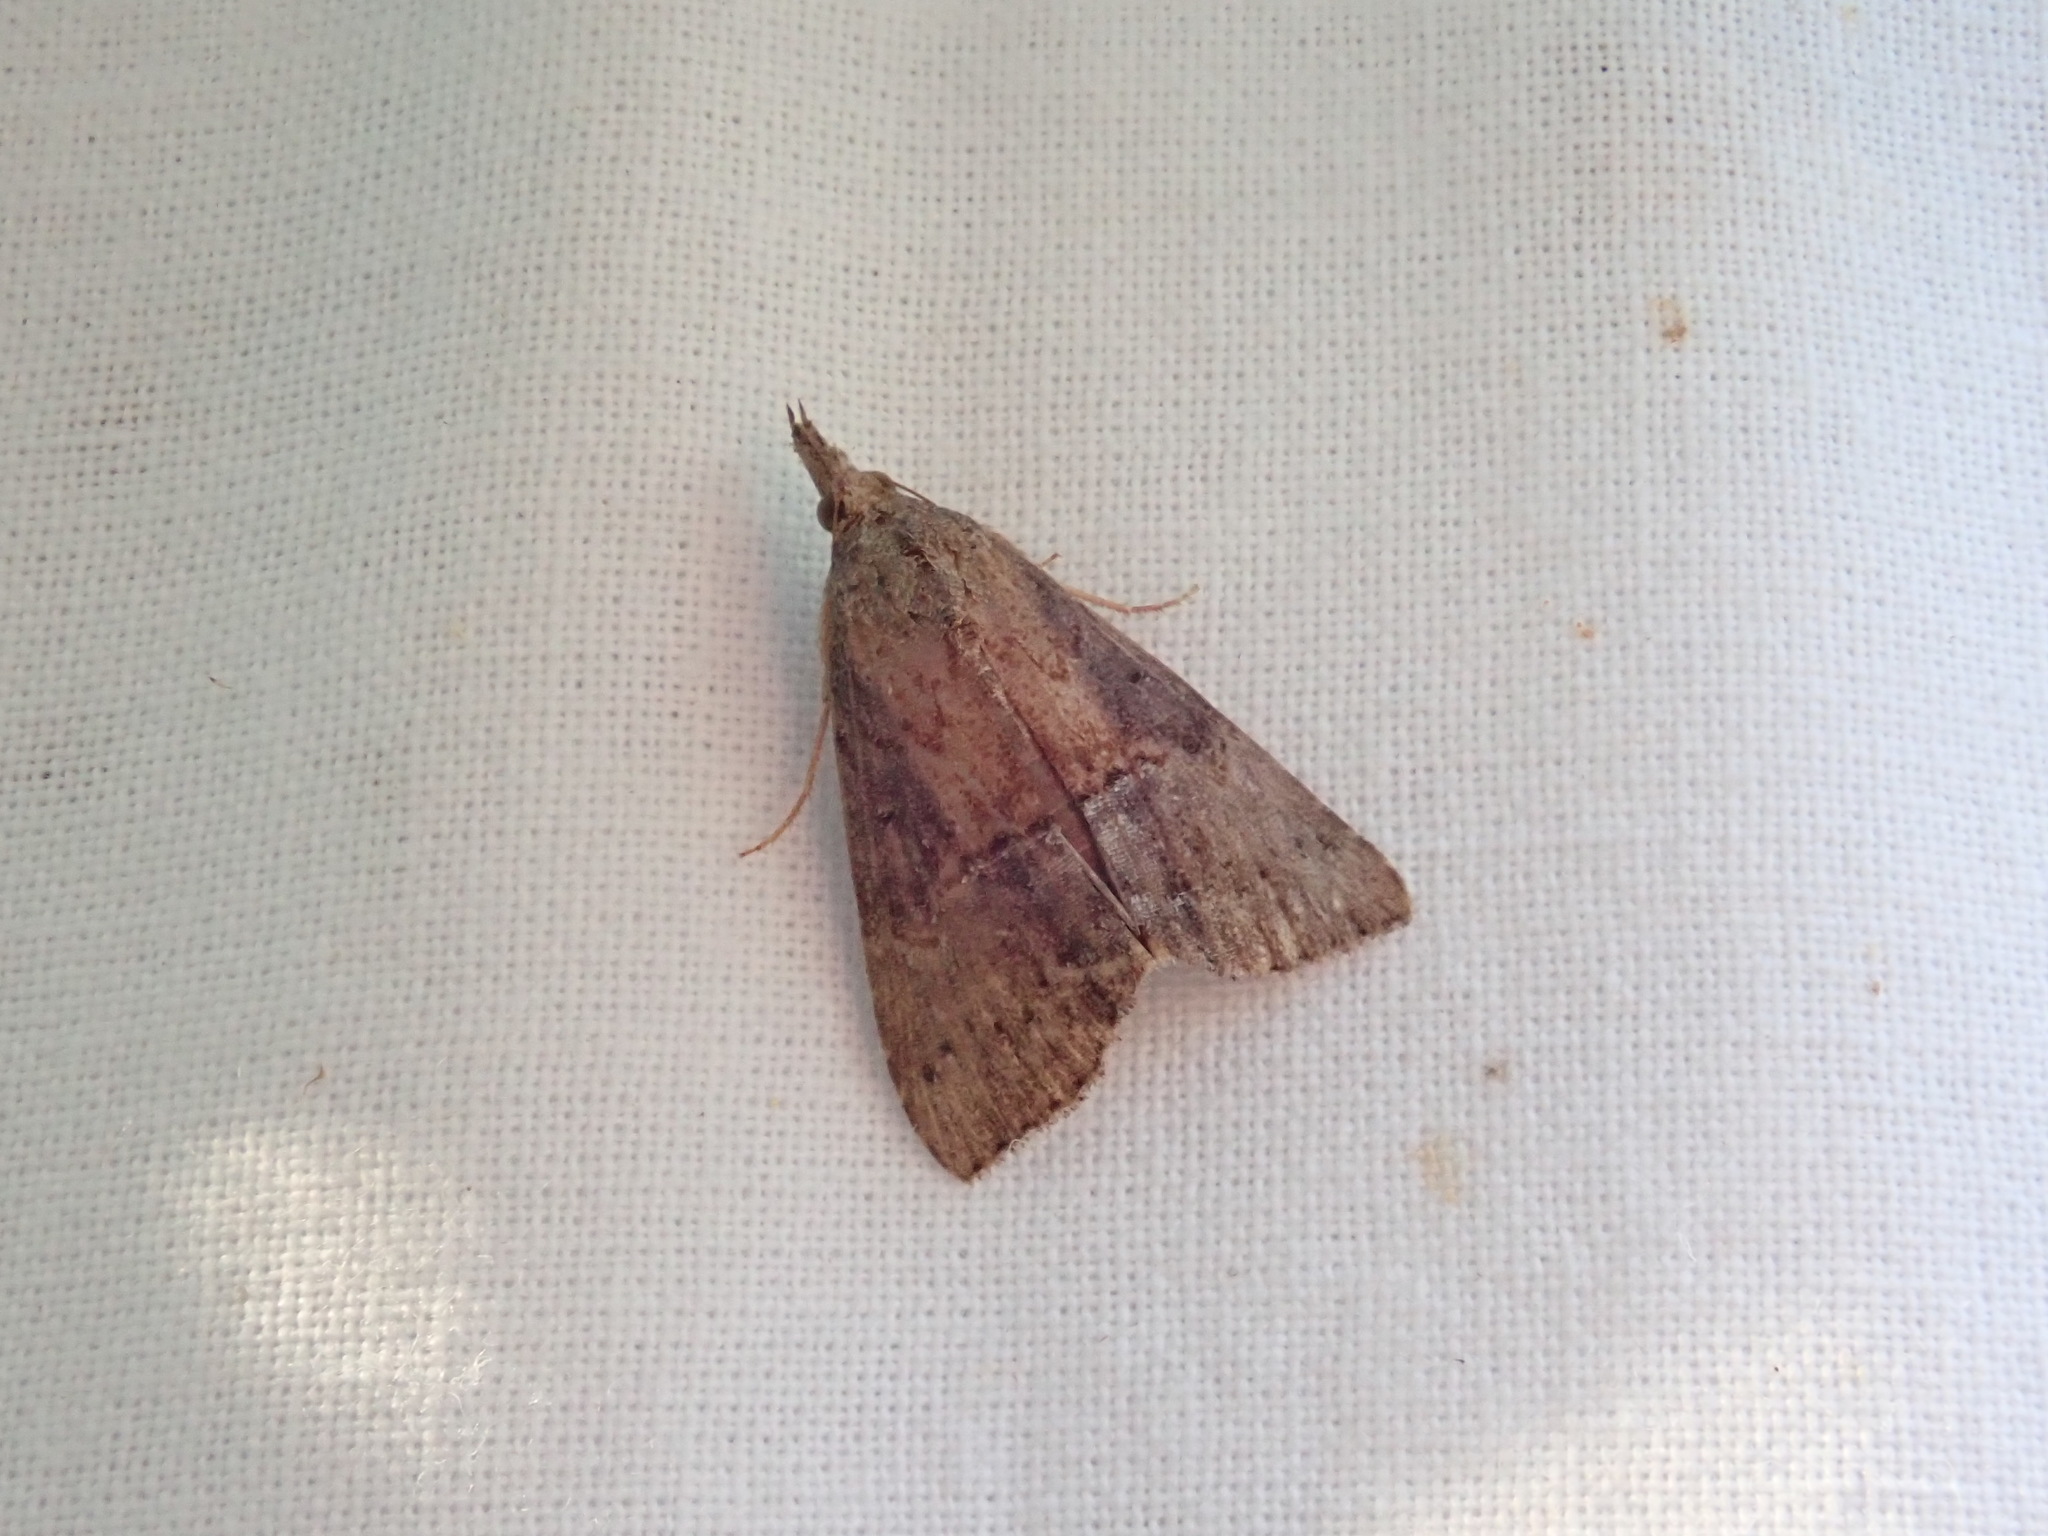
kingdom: Animalia
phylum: Arthropoda
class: Insecta
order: Lepidoptera
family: Erebidae
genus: Hypena
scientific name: Hypena scabra
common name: Green cloverworm
